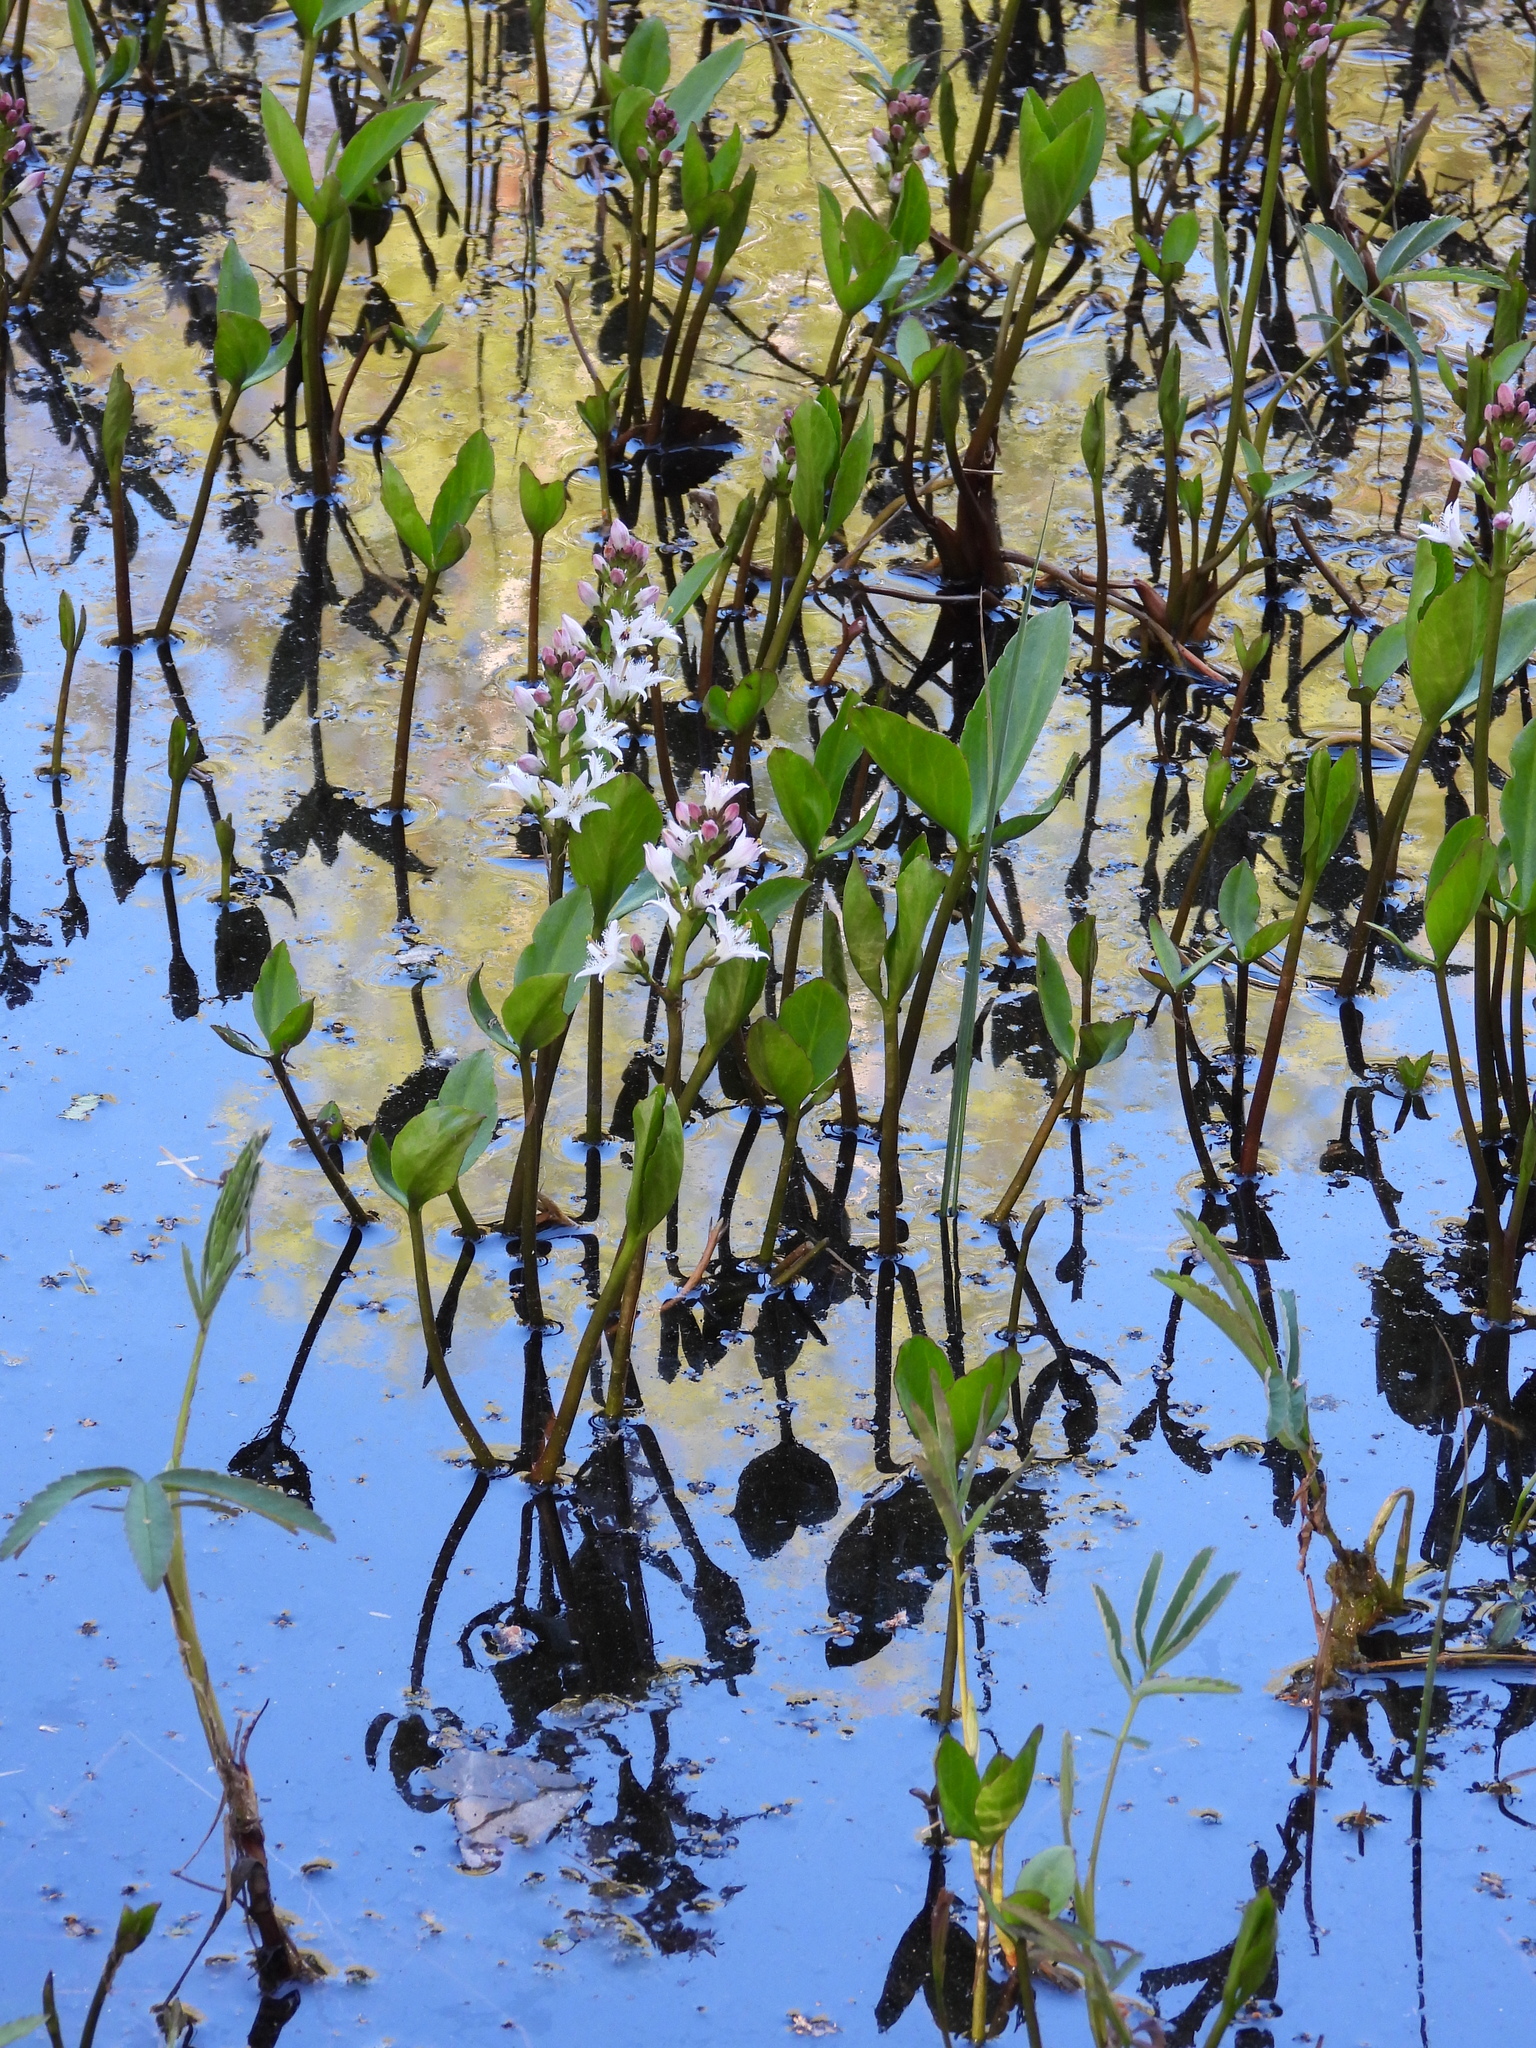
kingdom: Plantae
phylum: Tracheophyta
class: Magnoliopsida
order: Asterales
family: Menyanthaceae
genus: Menyanthes
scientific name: Menyanthes trifoliata
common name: Bogbean
